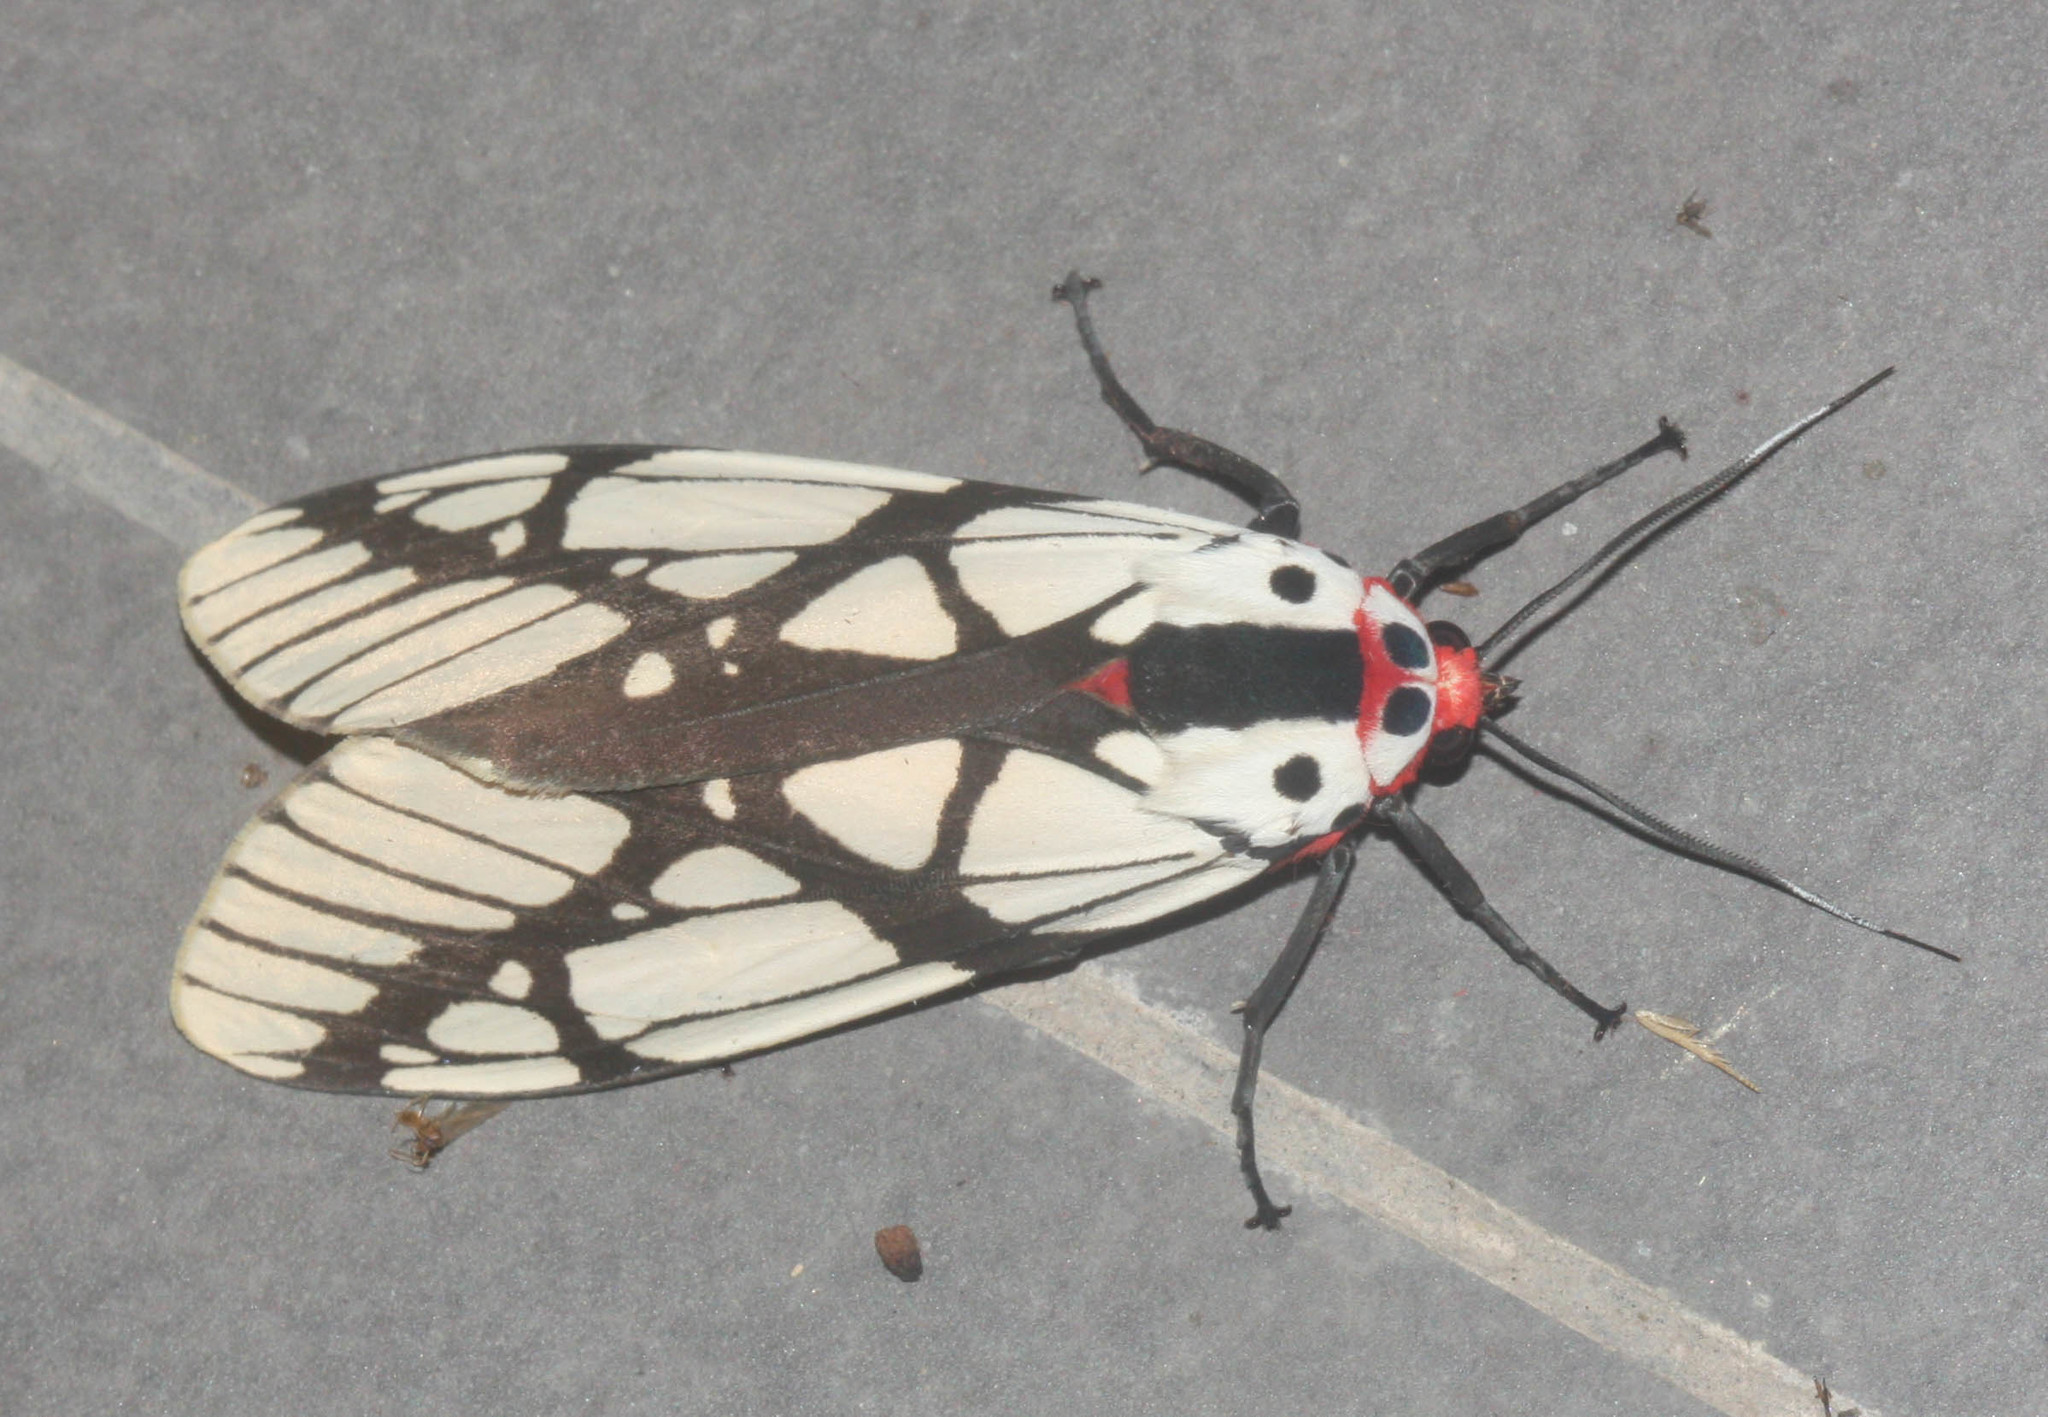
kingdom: Animalia
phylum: Arthropoda
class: Insecta
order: Lepidoptera
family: Erebidae
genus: Areas
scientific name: Areas galactina
